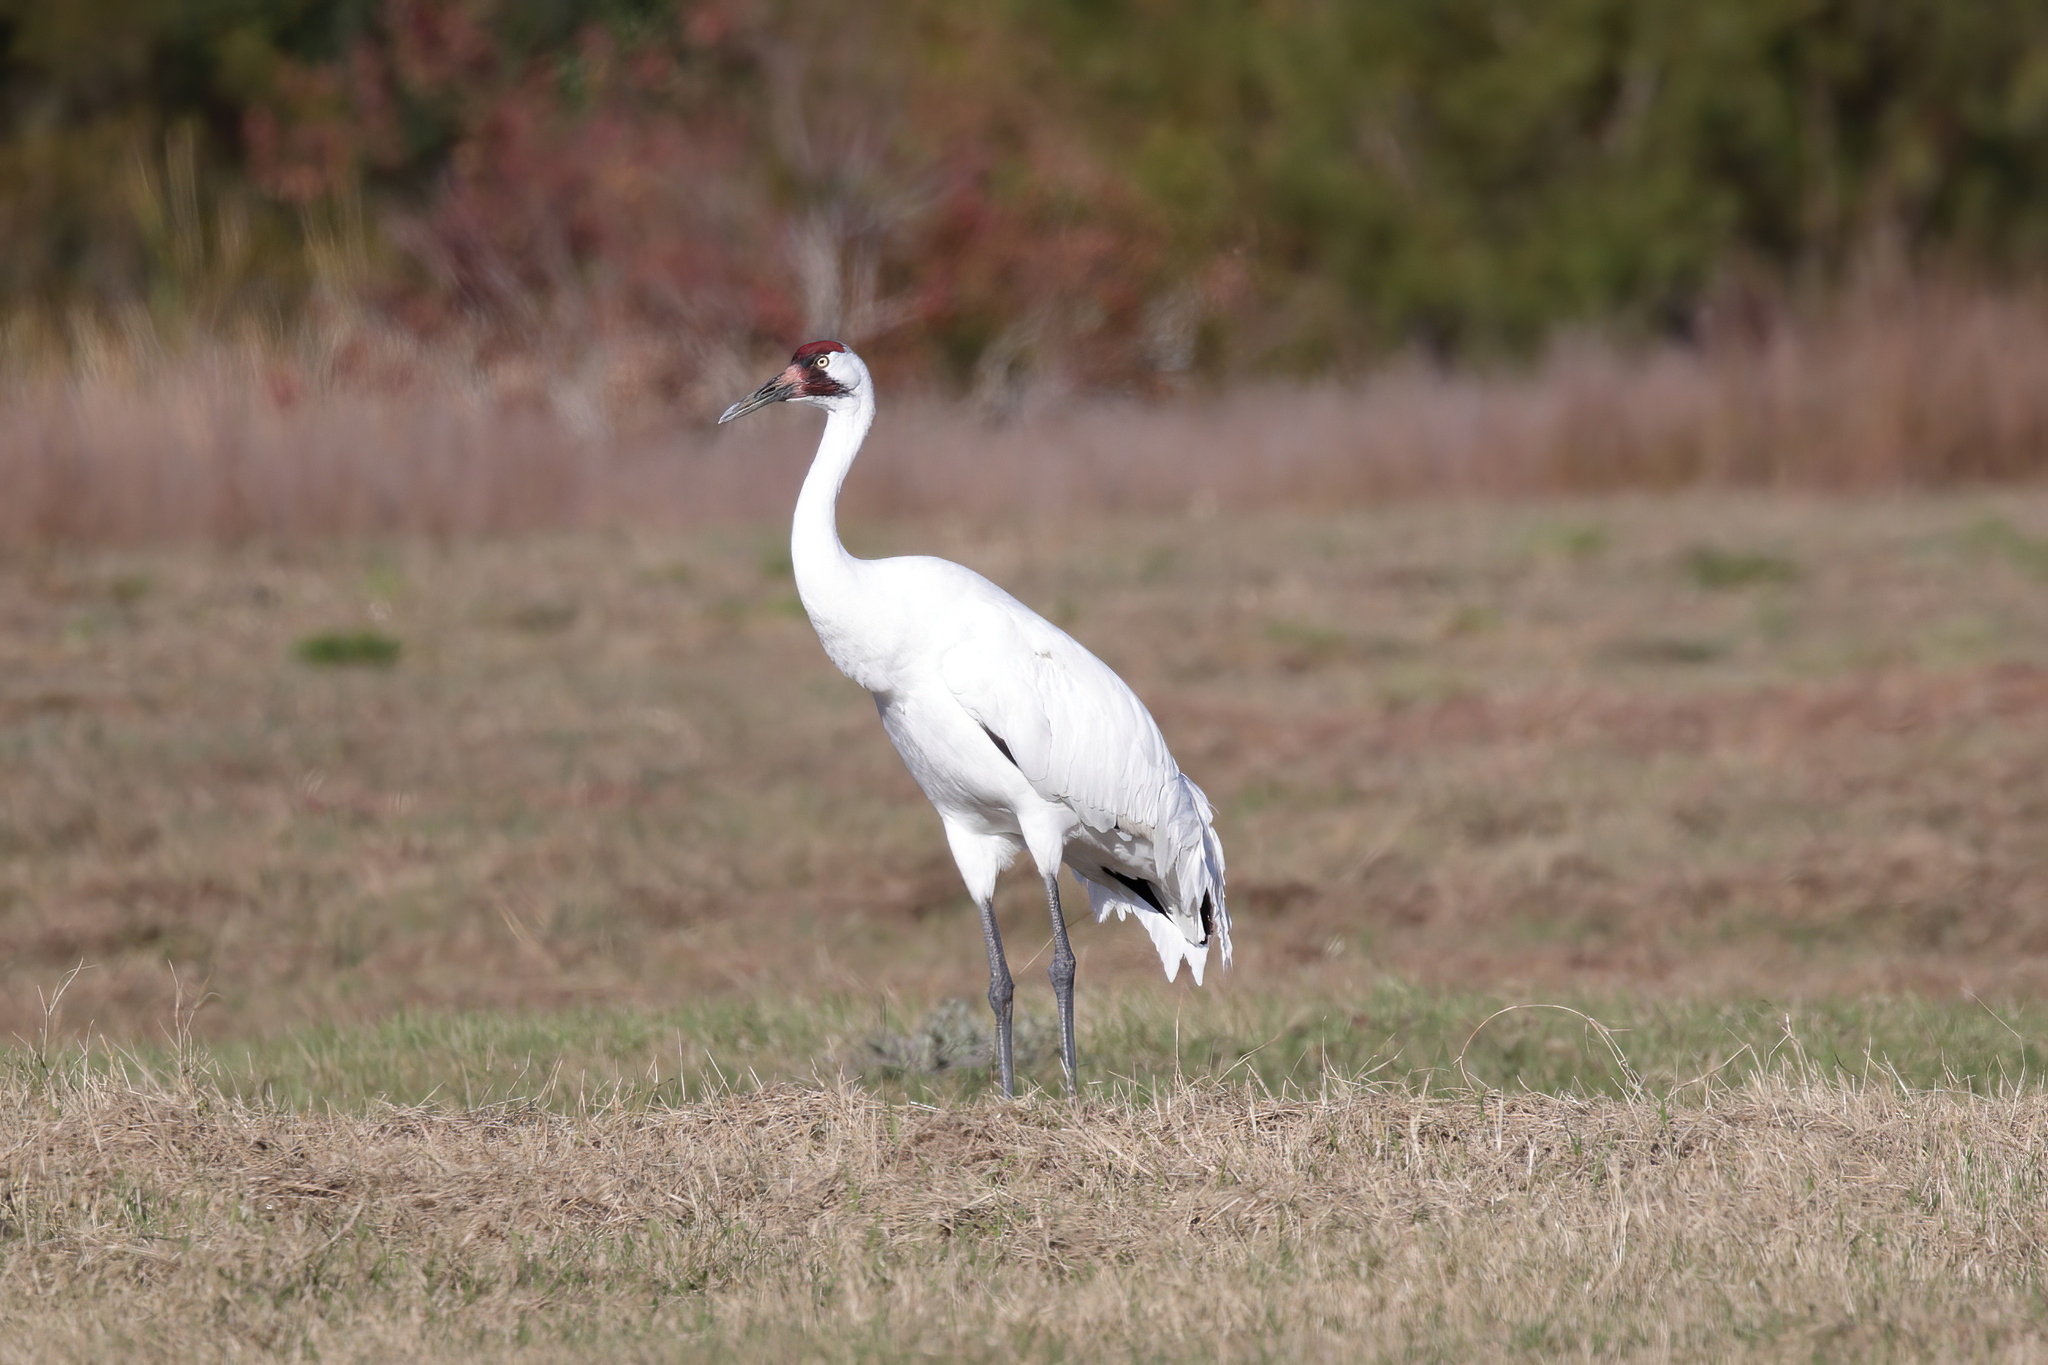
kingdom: Animalia
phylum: Chordata
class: Aves
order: Gruiformes
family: Gruidae
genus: Grus
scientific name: Grus americana
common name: Whooping crane
